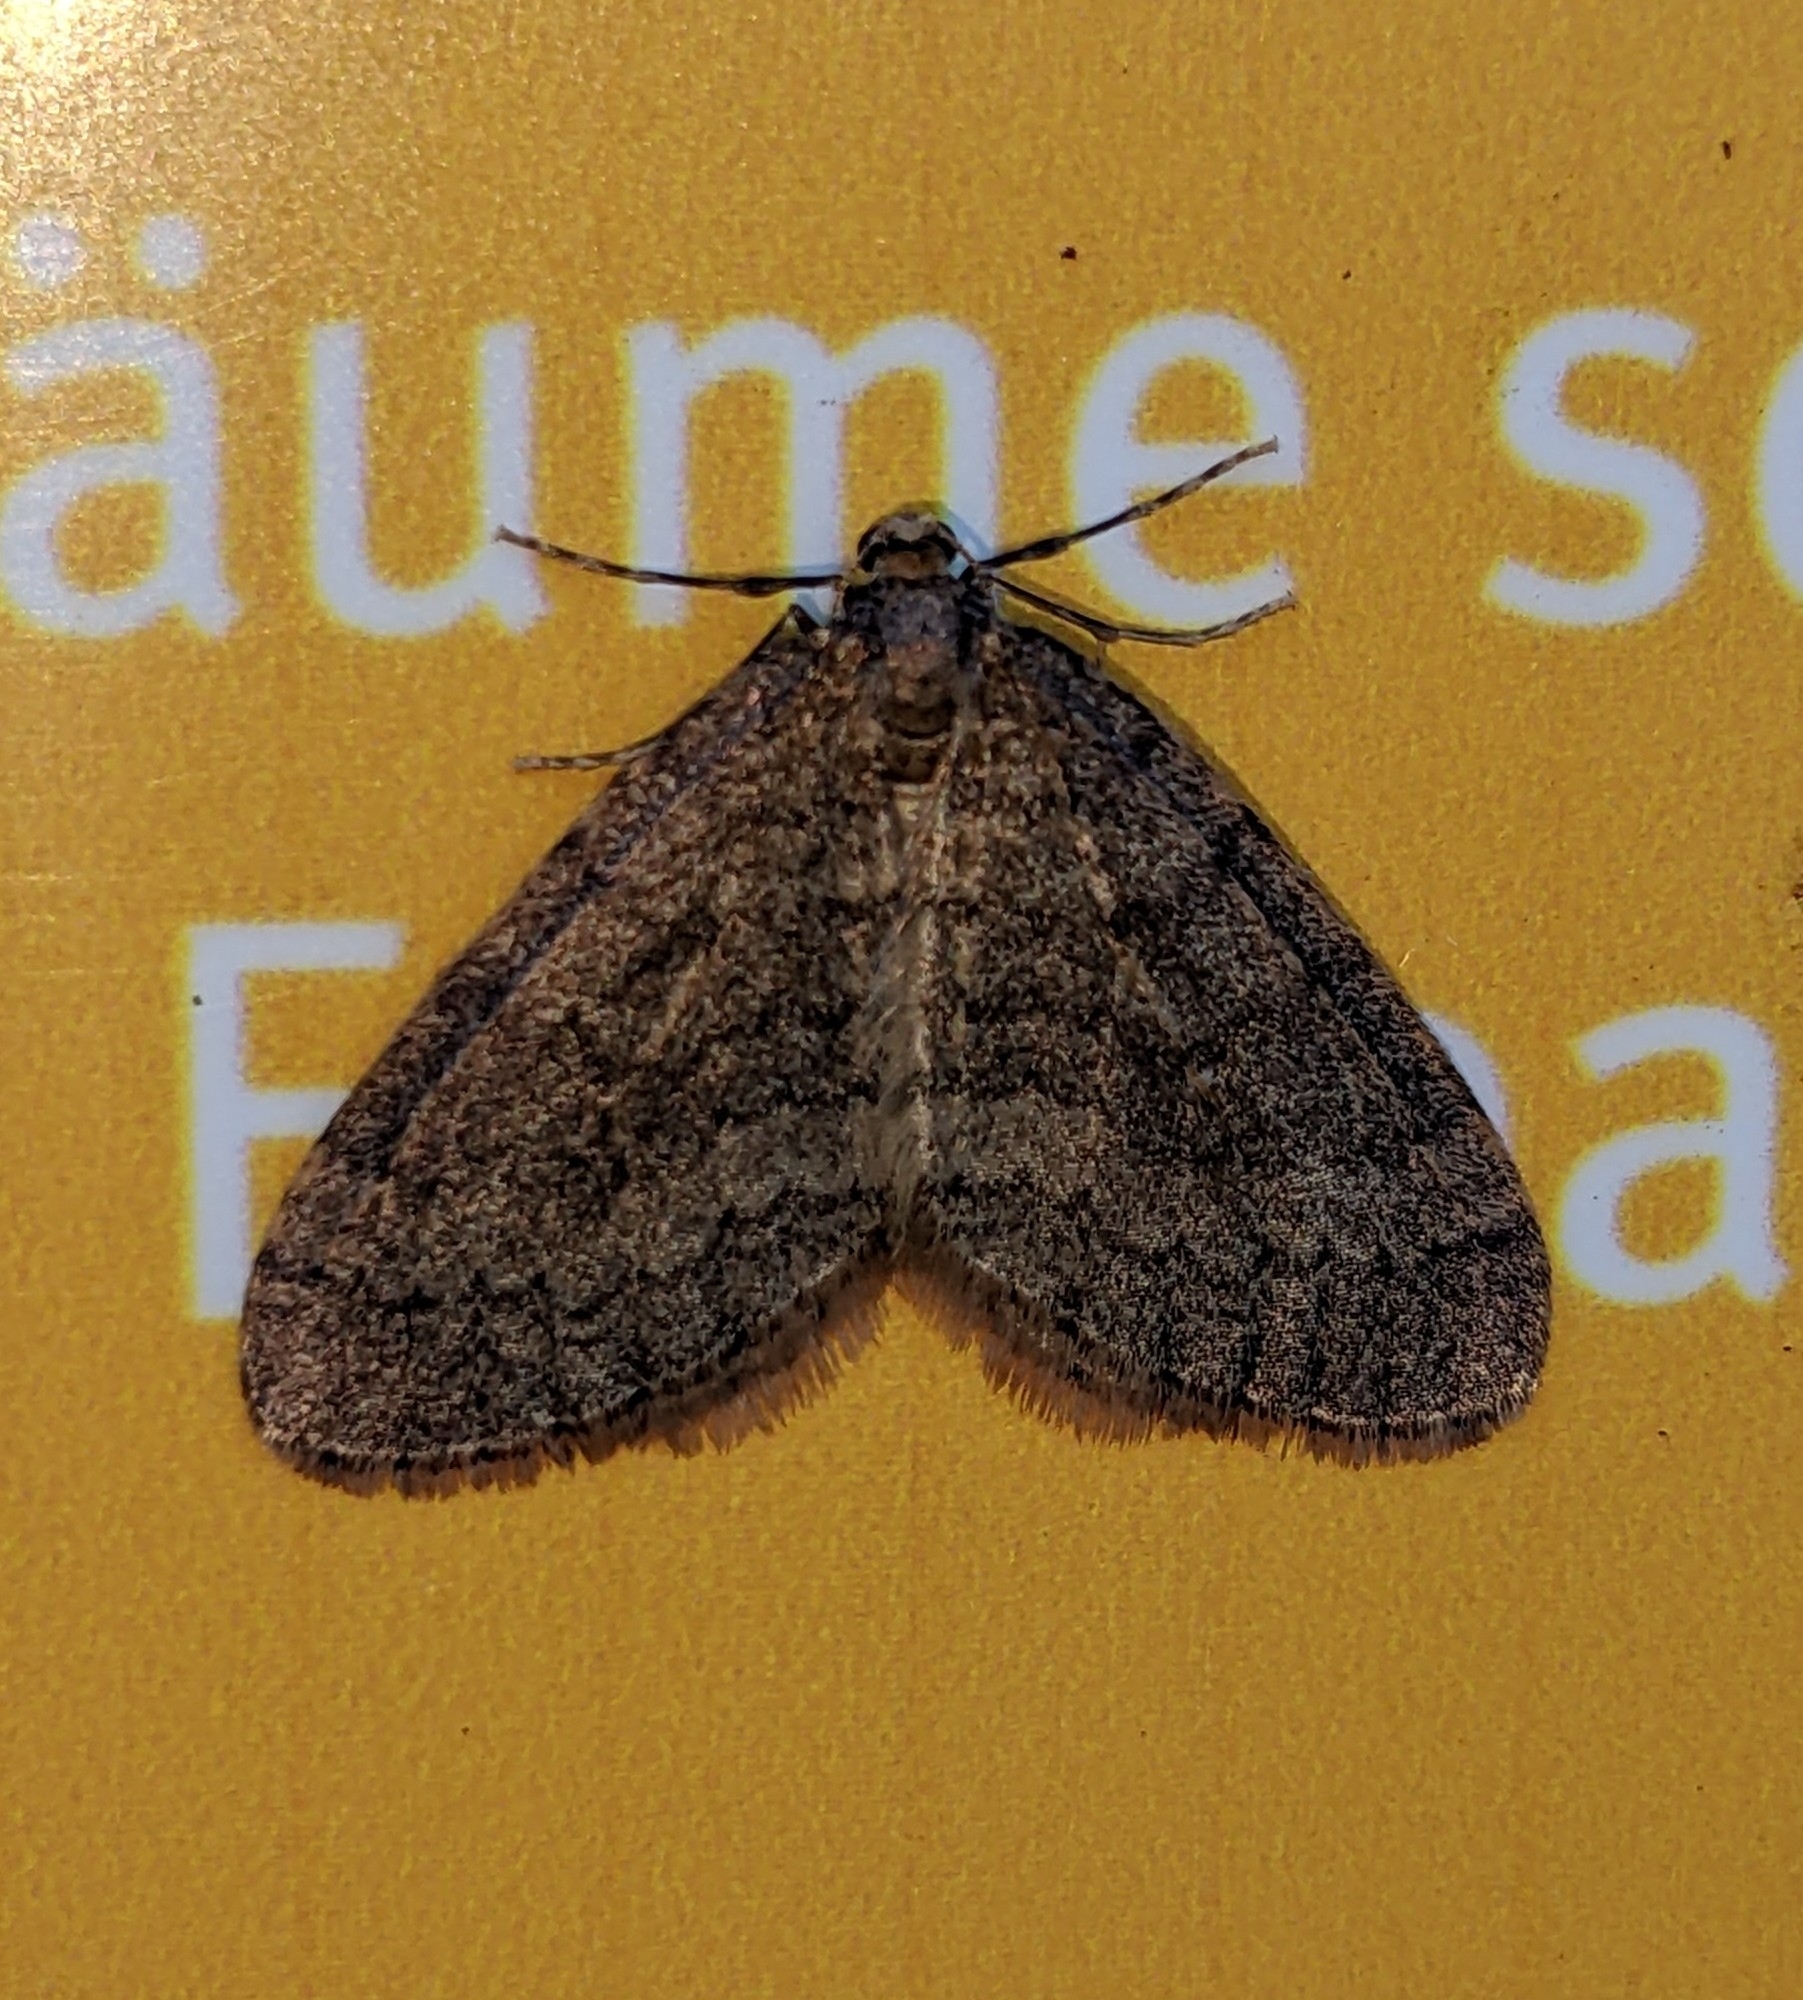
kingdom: Animalia
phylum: Arthropoda
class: Insecta
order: Lepidoptera
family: Geometridae
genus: Operophtera
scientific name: Operophtera brumata
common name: Winter moth
